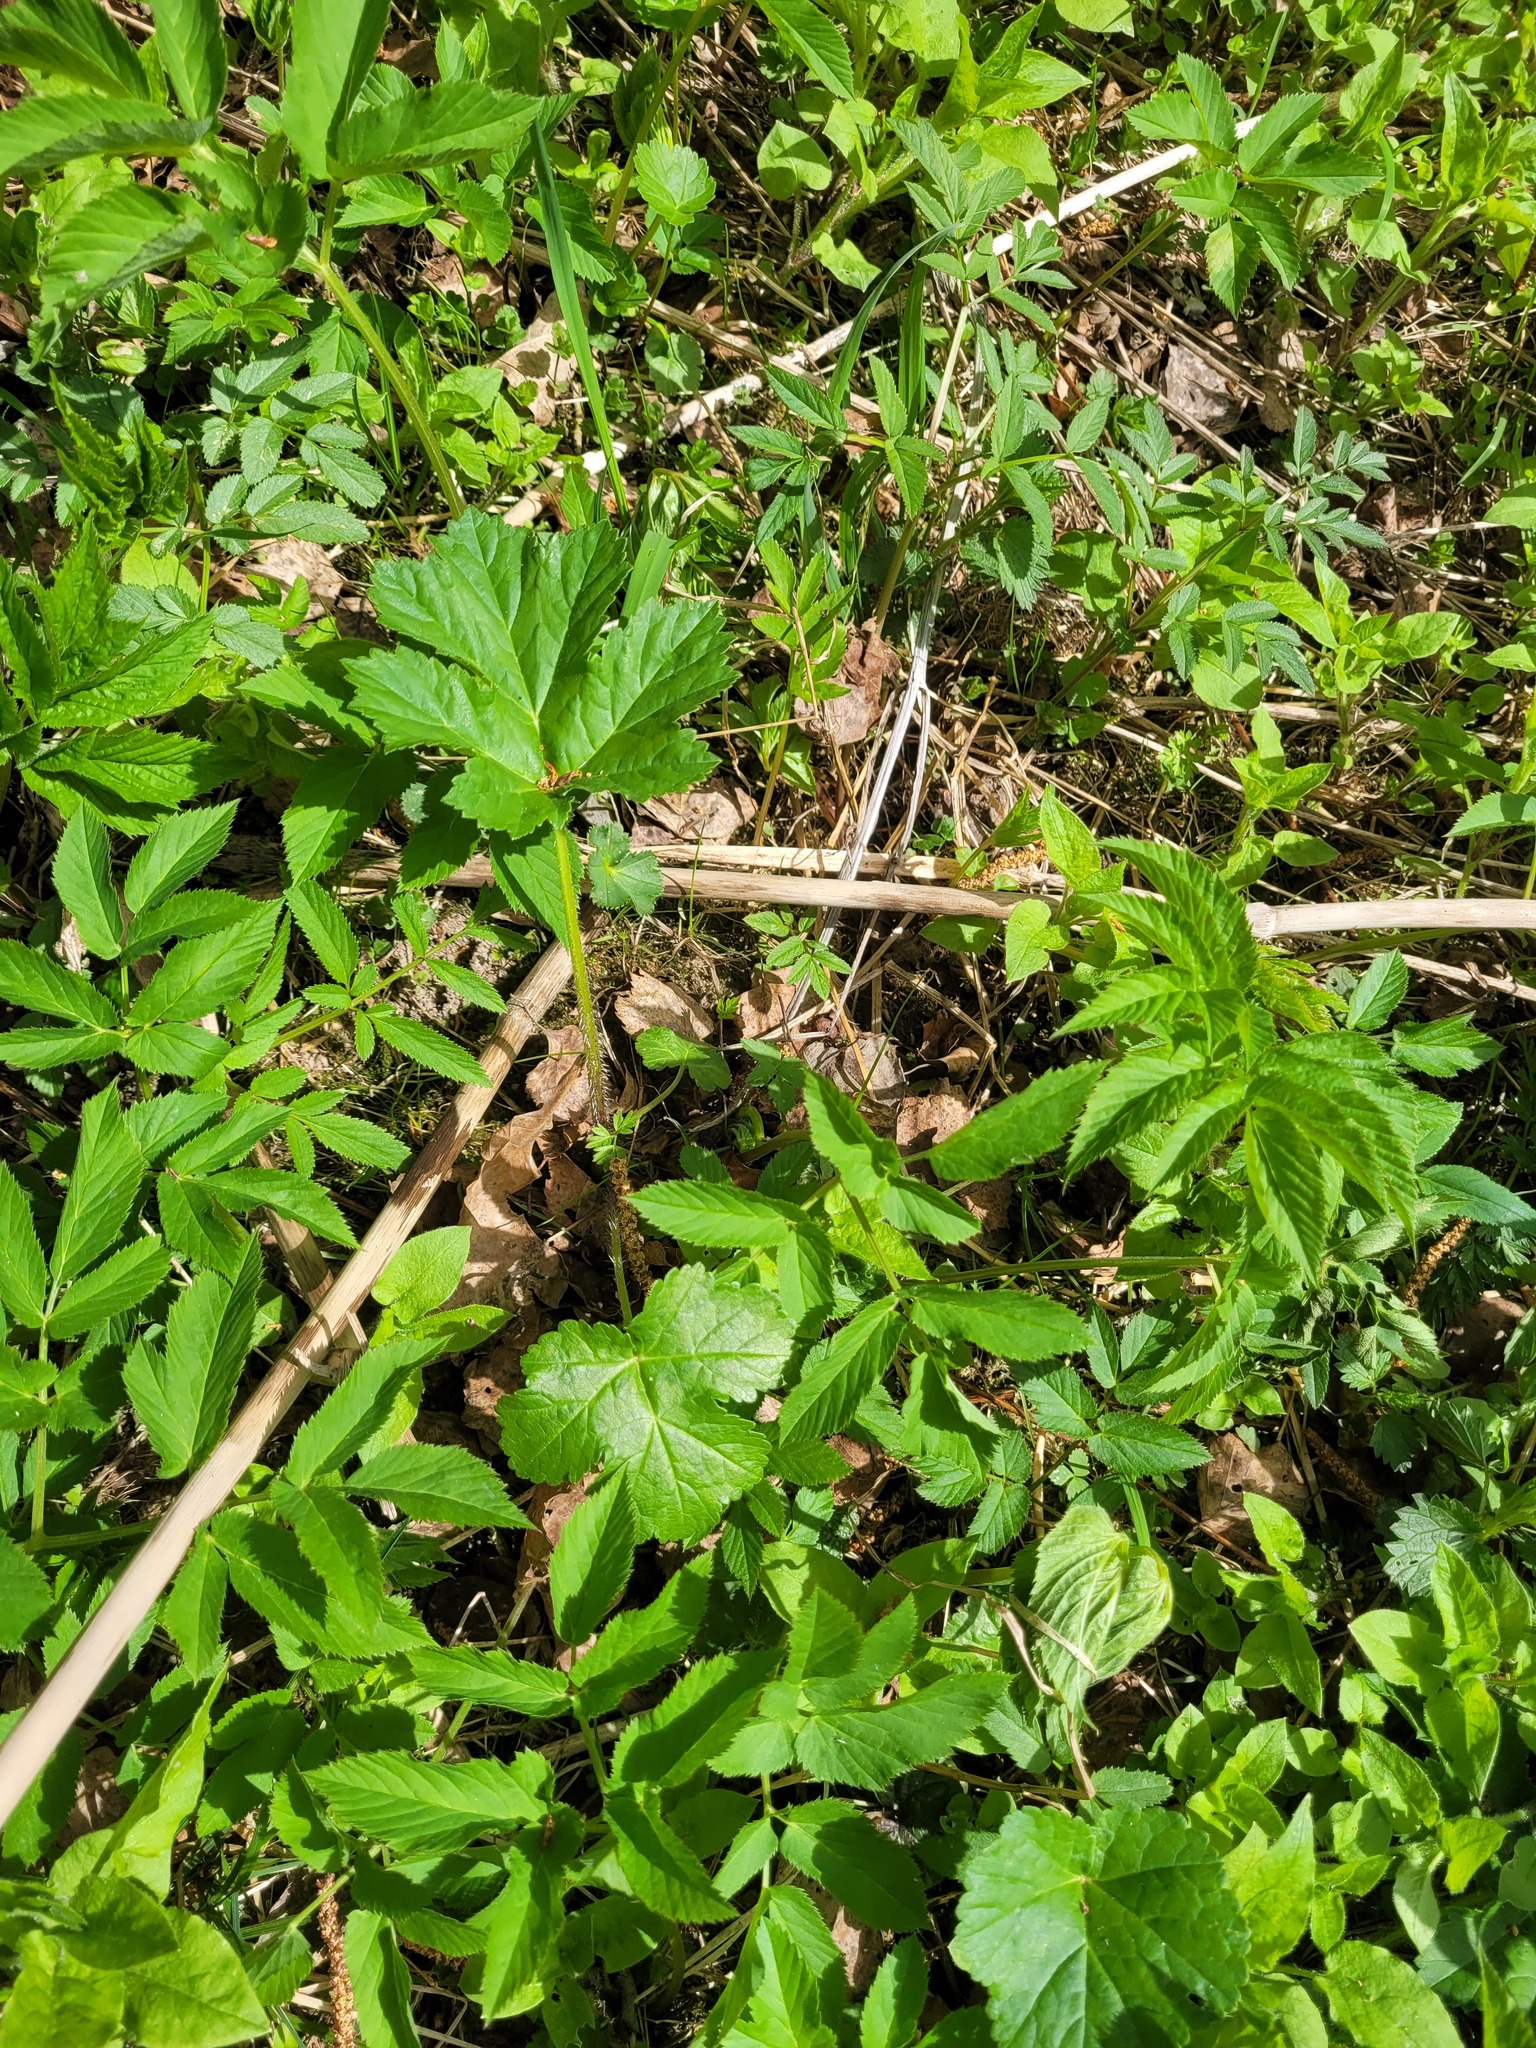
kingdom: Plantae
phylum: Tracheophyta
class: Magnoliopsida
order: Apiales
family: Apiaceae
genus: Heracleum
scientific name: Heracleum sosnowskyi
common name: Sosnowsky's hogweed
